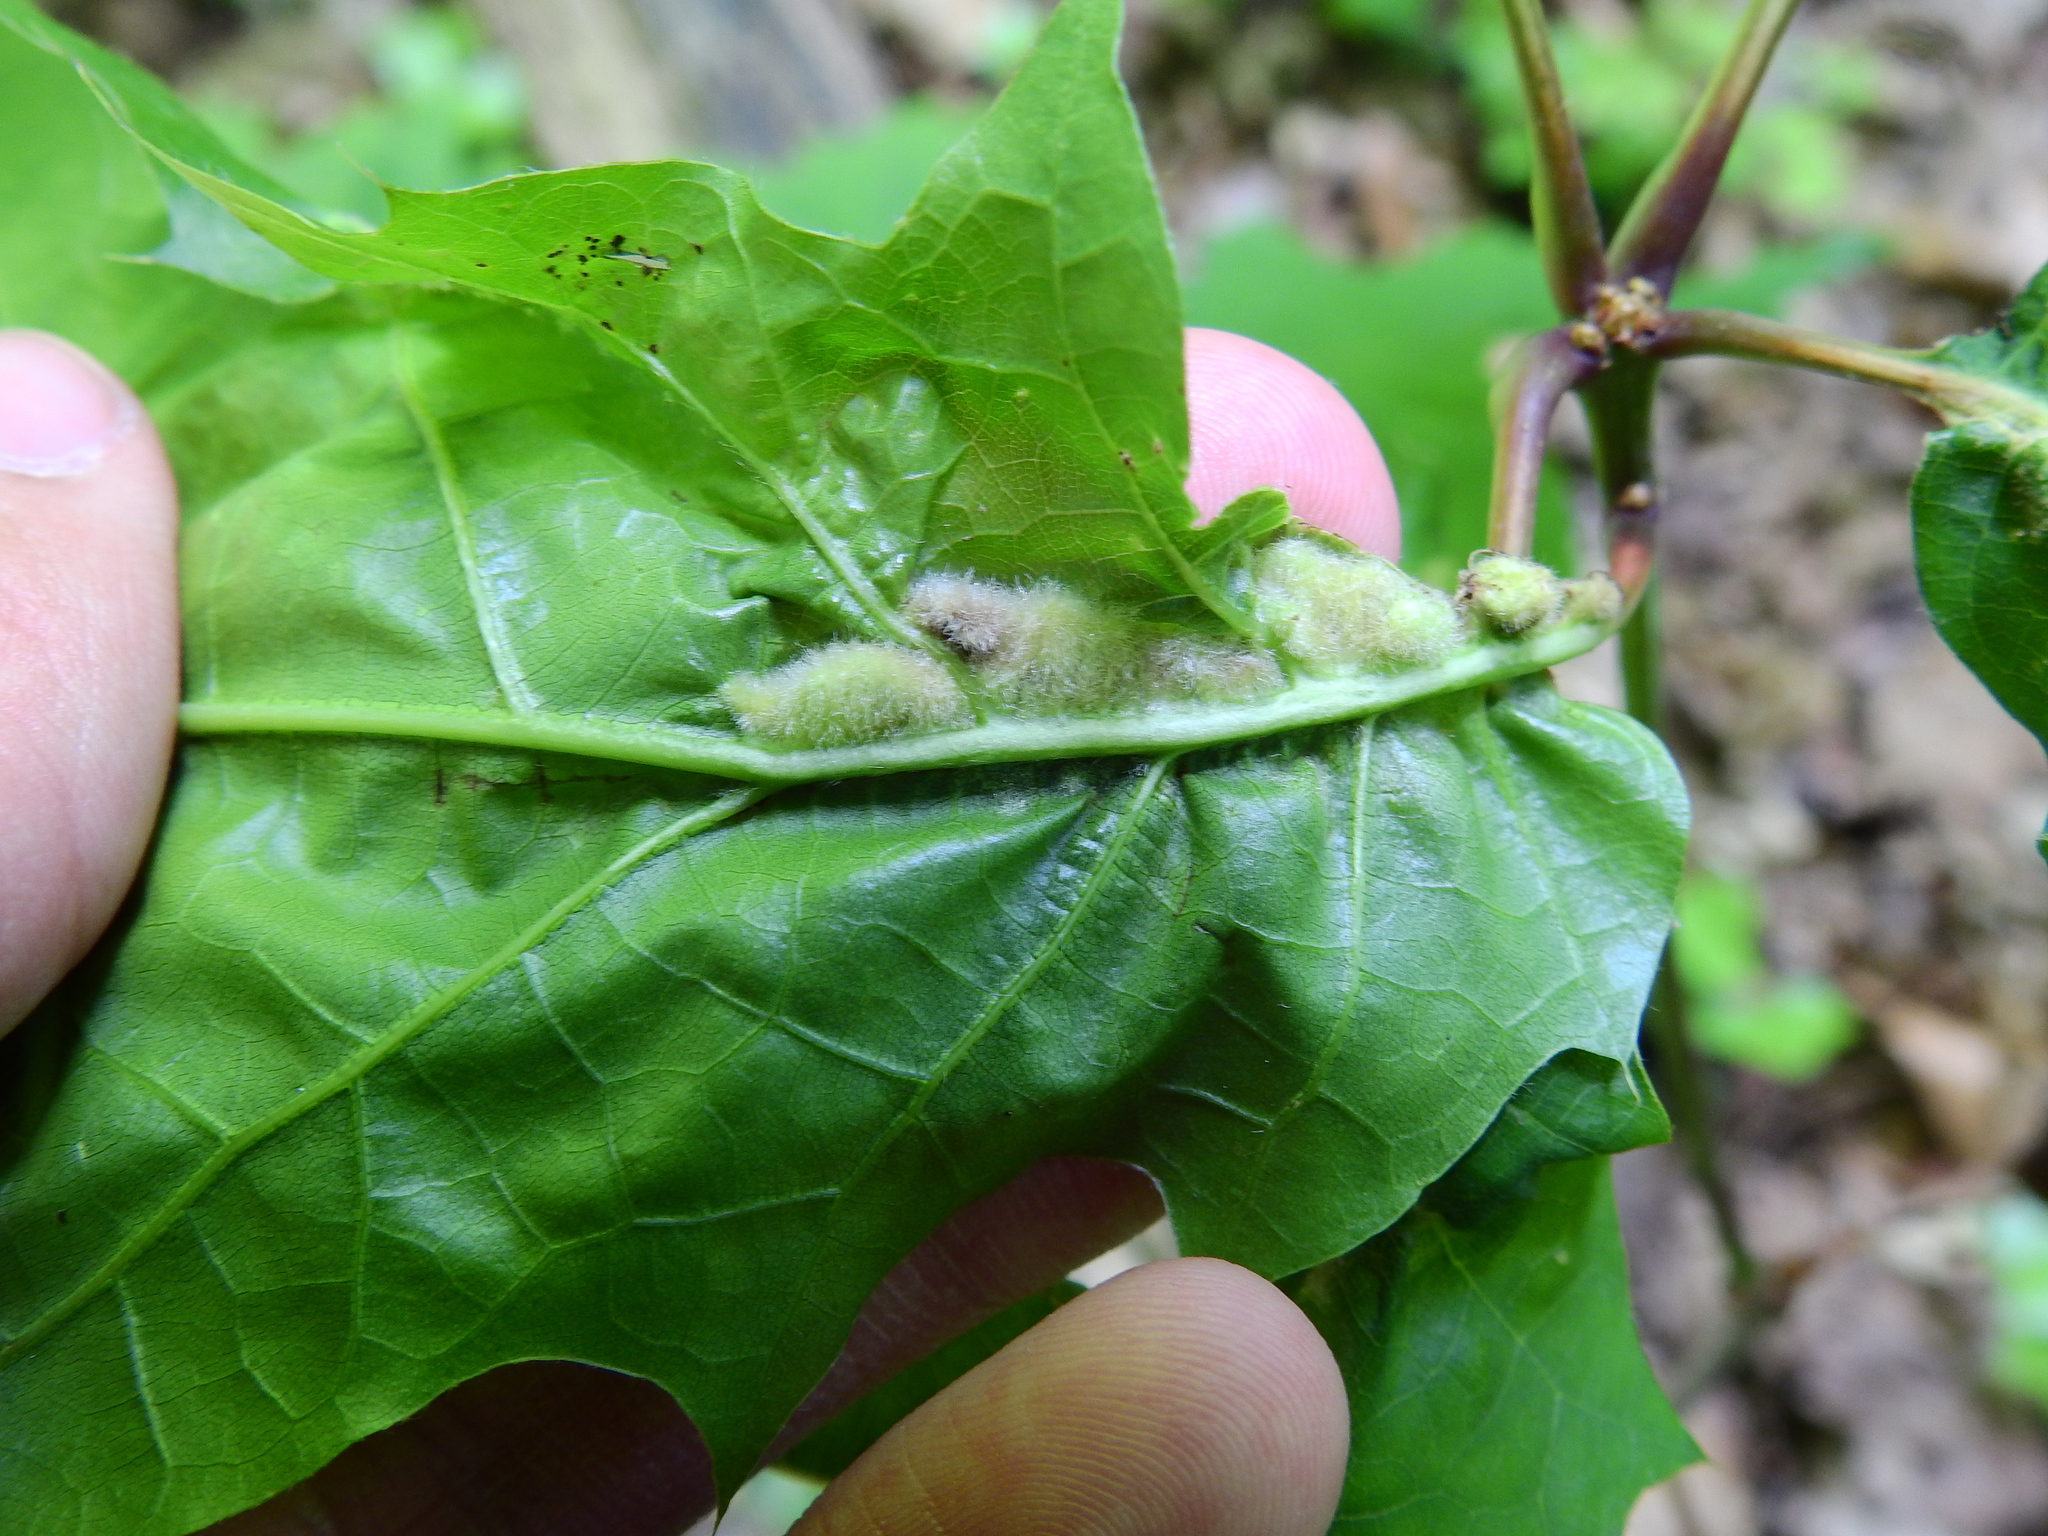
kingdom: Animalia
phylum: Arthropoda
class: Insecta
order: Diptera
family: Cecidomyiidae
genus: Macrodiplosis
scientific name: Macrodiplosis niveipila
